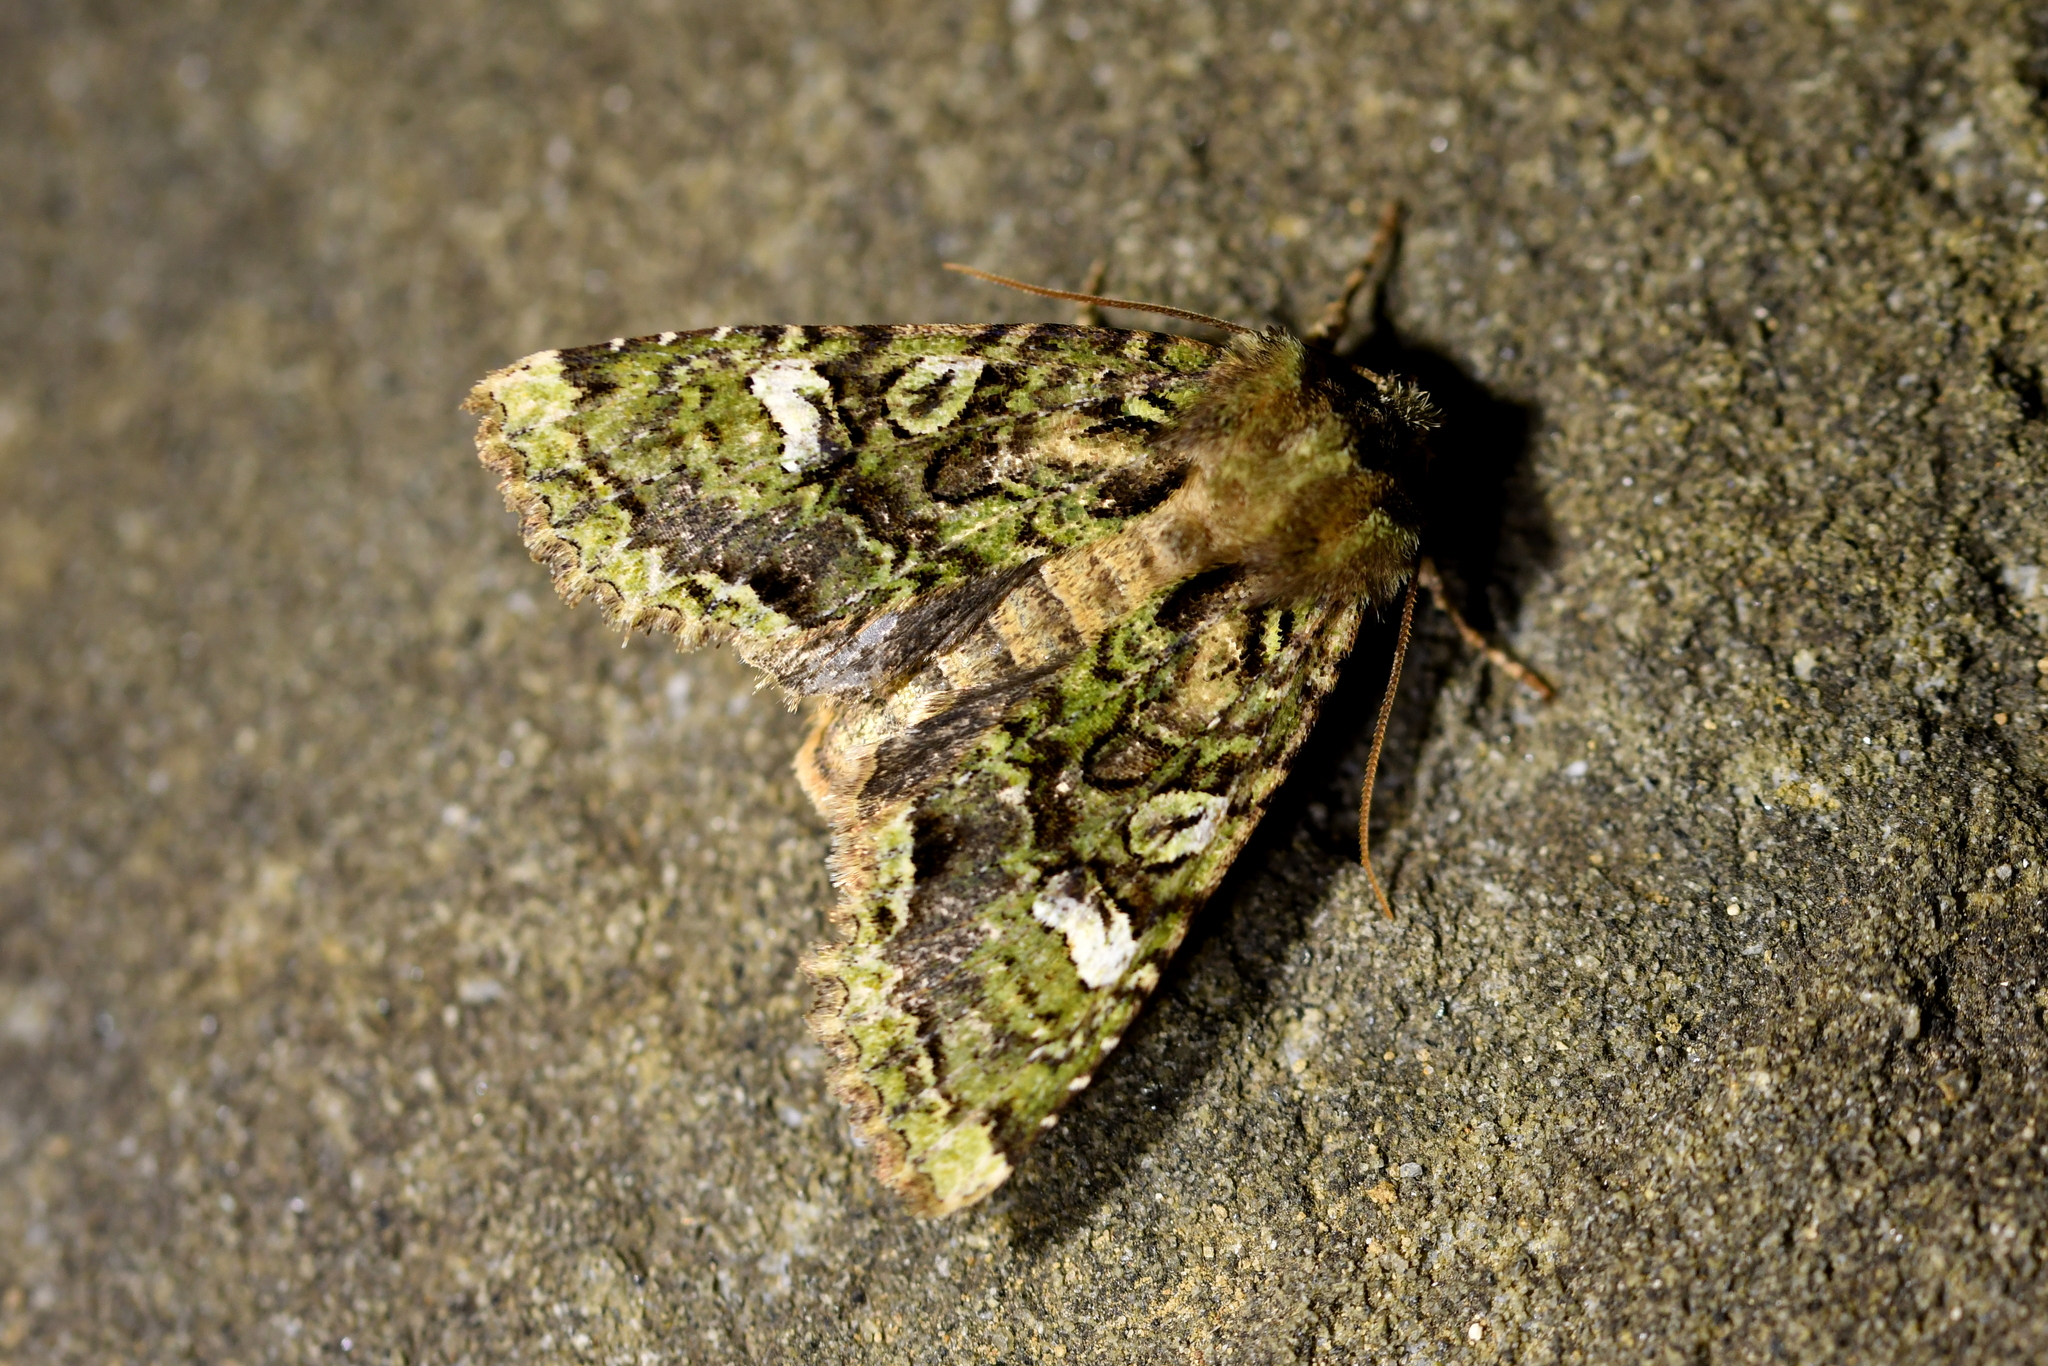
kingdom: Animalia
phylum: Arthropoda
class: Insecta
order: Lepidoptera
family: Noctuidae
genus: Ichneutica
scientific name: Ichneutica
